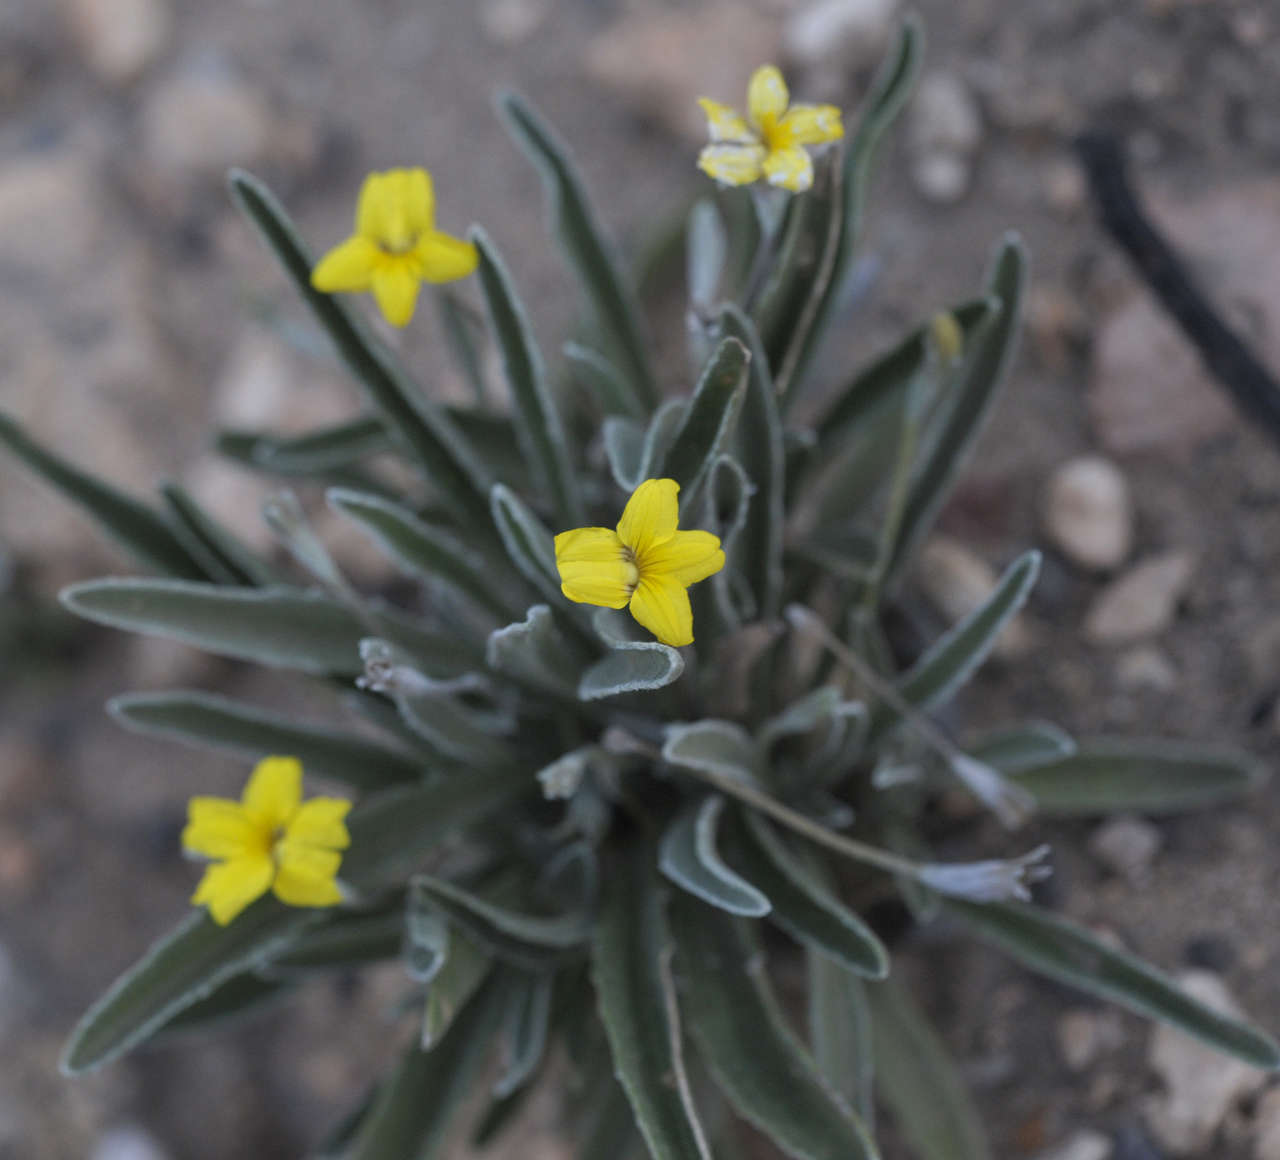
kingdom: Plantae
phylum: Tracheophyta
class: Magnoliopsida
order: Asterales
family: Goodeniaceae
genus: Goodenia
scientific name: Goodenia willisiana
